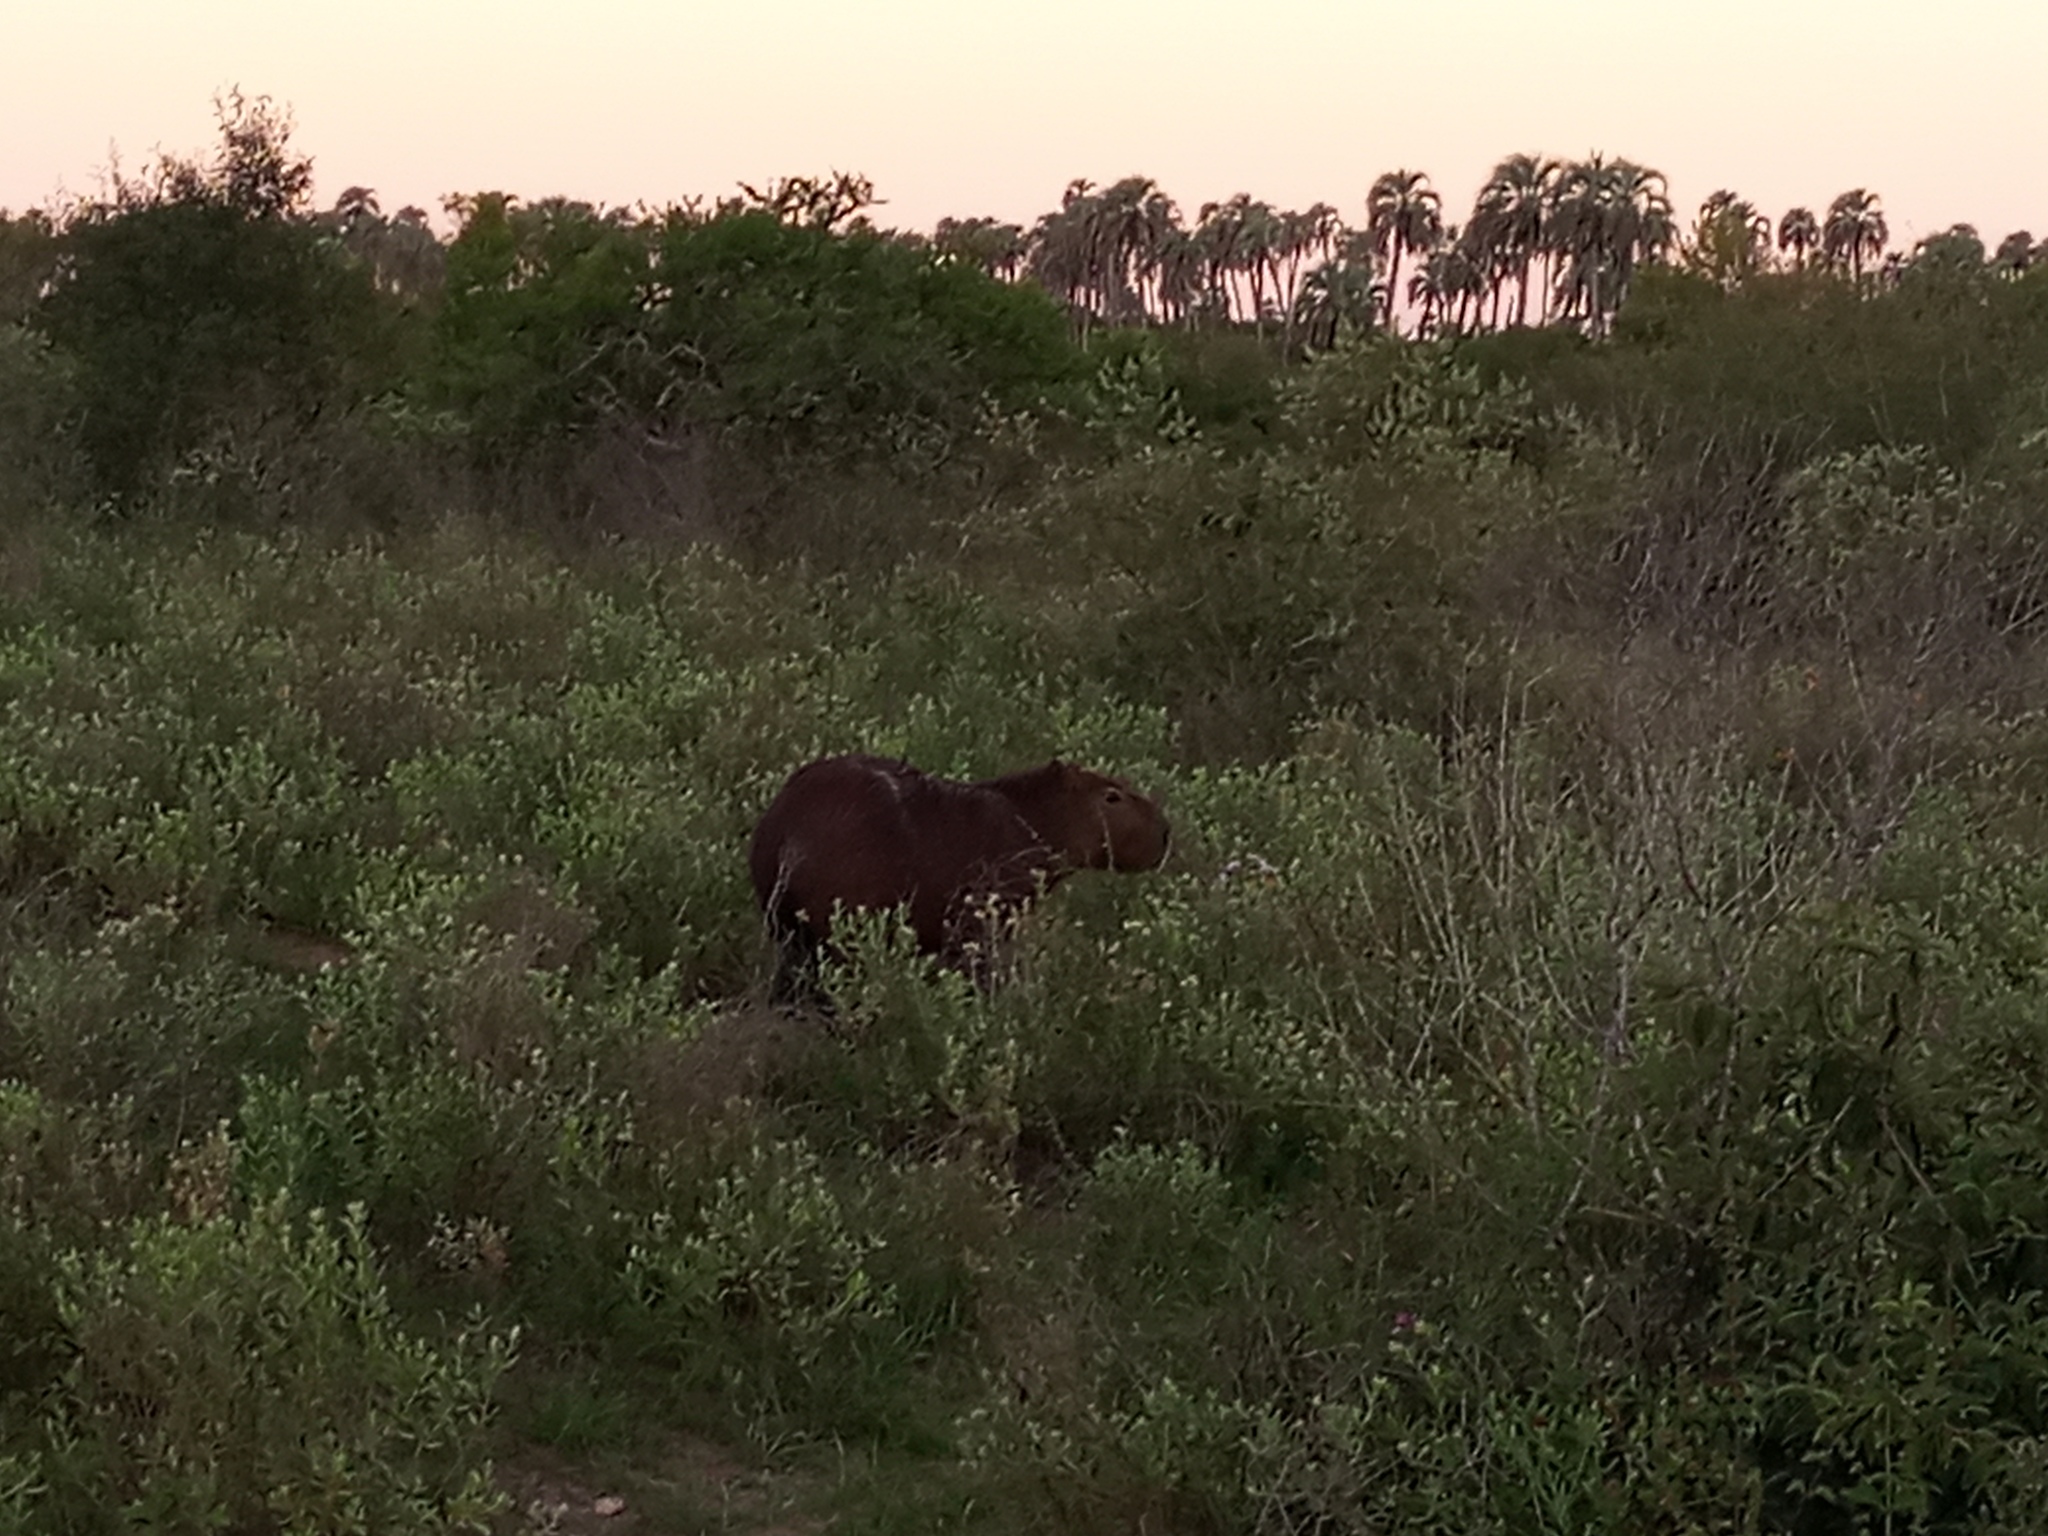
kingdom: Animalia
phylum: Chordata
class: Mammalia
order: Rodentia
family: Caviidae
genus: Hydrochoerus
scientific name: Hydrochoerus hydrochaeris
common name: Capybara
